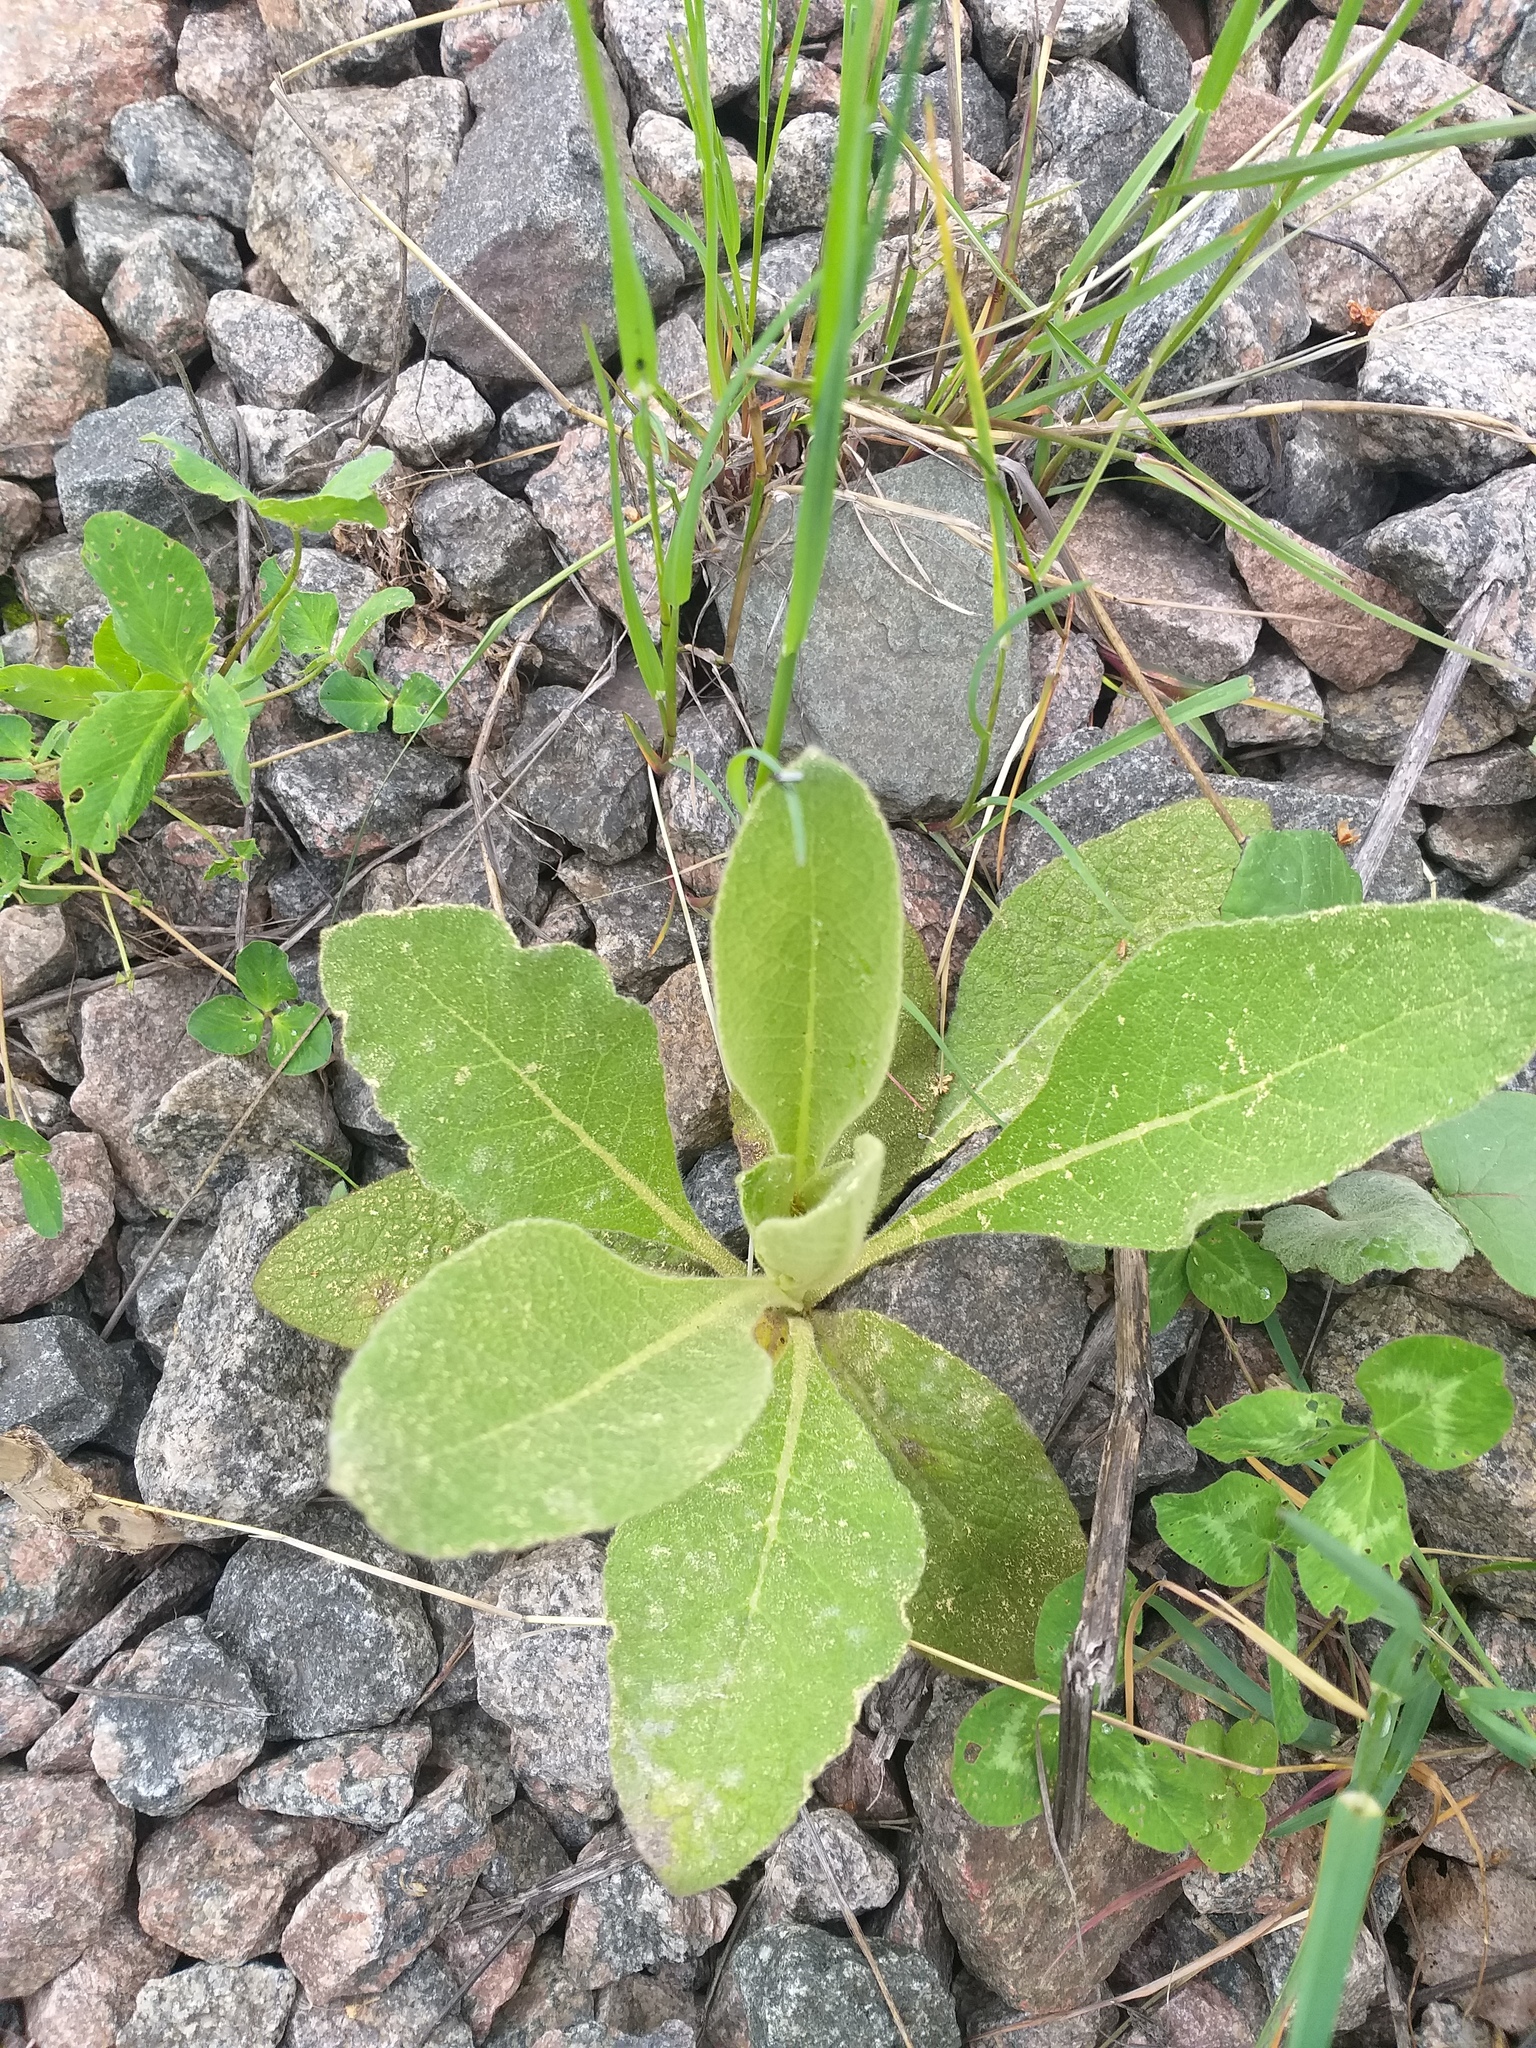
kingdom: Plantae
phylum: Tracheophyta
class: Magnoliopsida
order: Lamiales
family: Scrophulariaceae
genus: Verbascum
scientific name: Verbascum thapsus
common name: Common mullein
